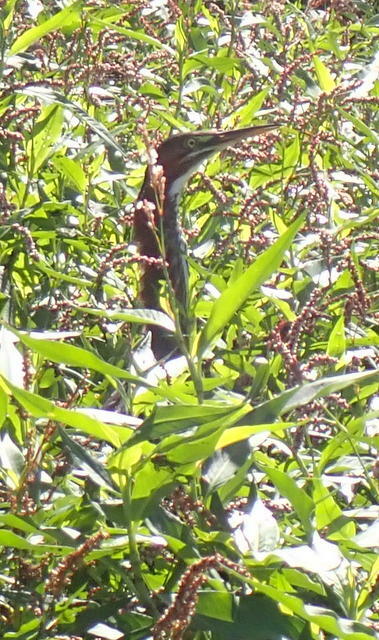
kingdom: Animalia
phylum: Chordata
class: Aves
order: Pelecaniformes
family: Ardeidae
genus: Butorides
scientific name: Butorides virescens
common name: Green heron
